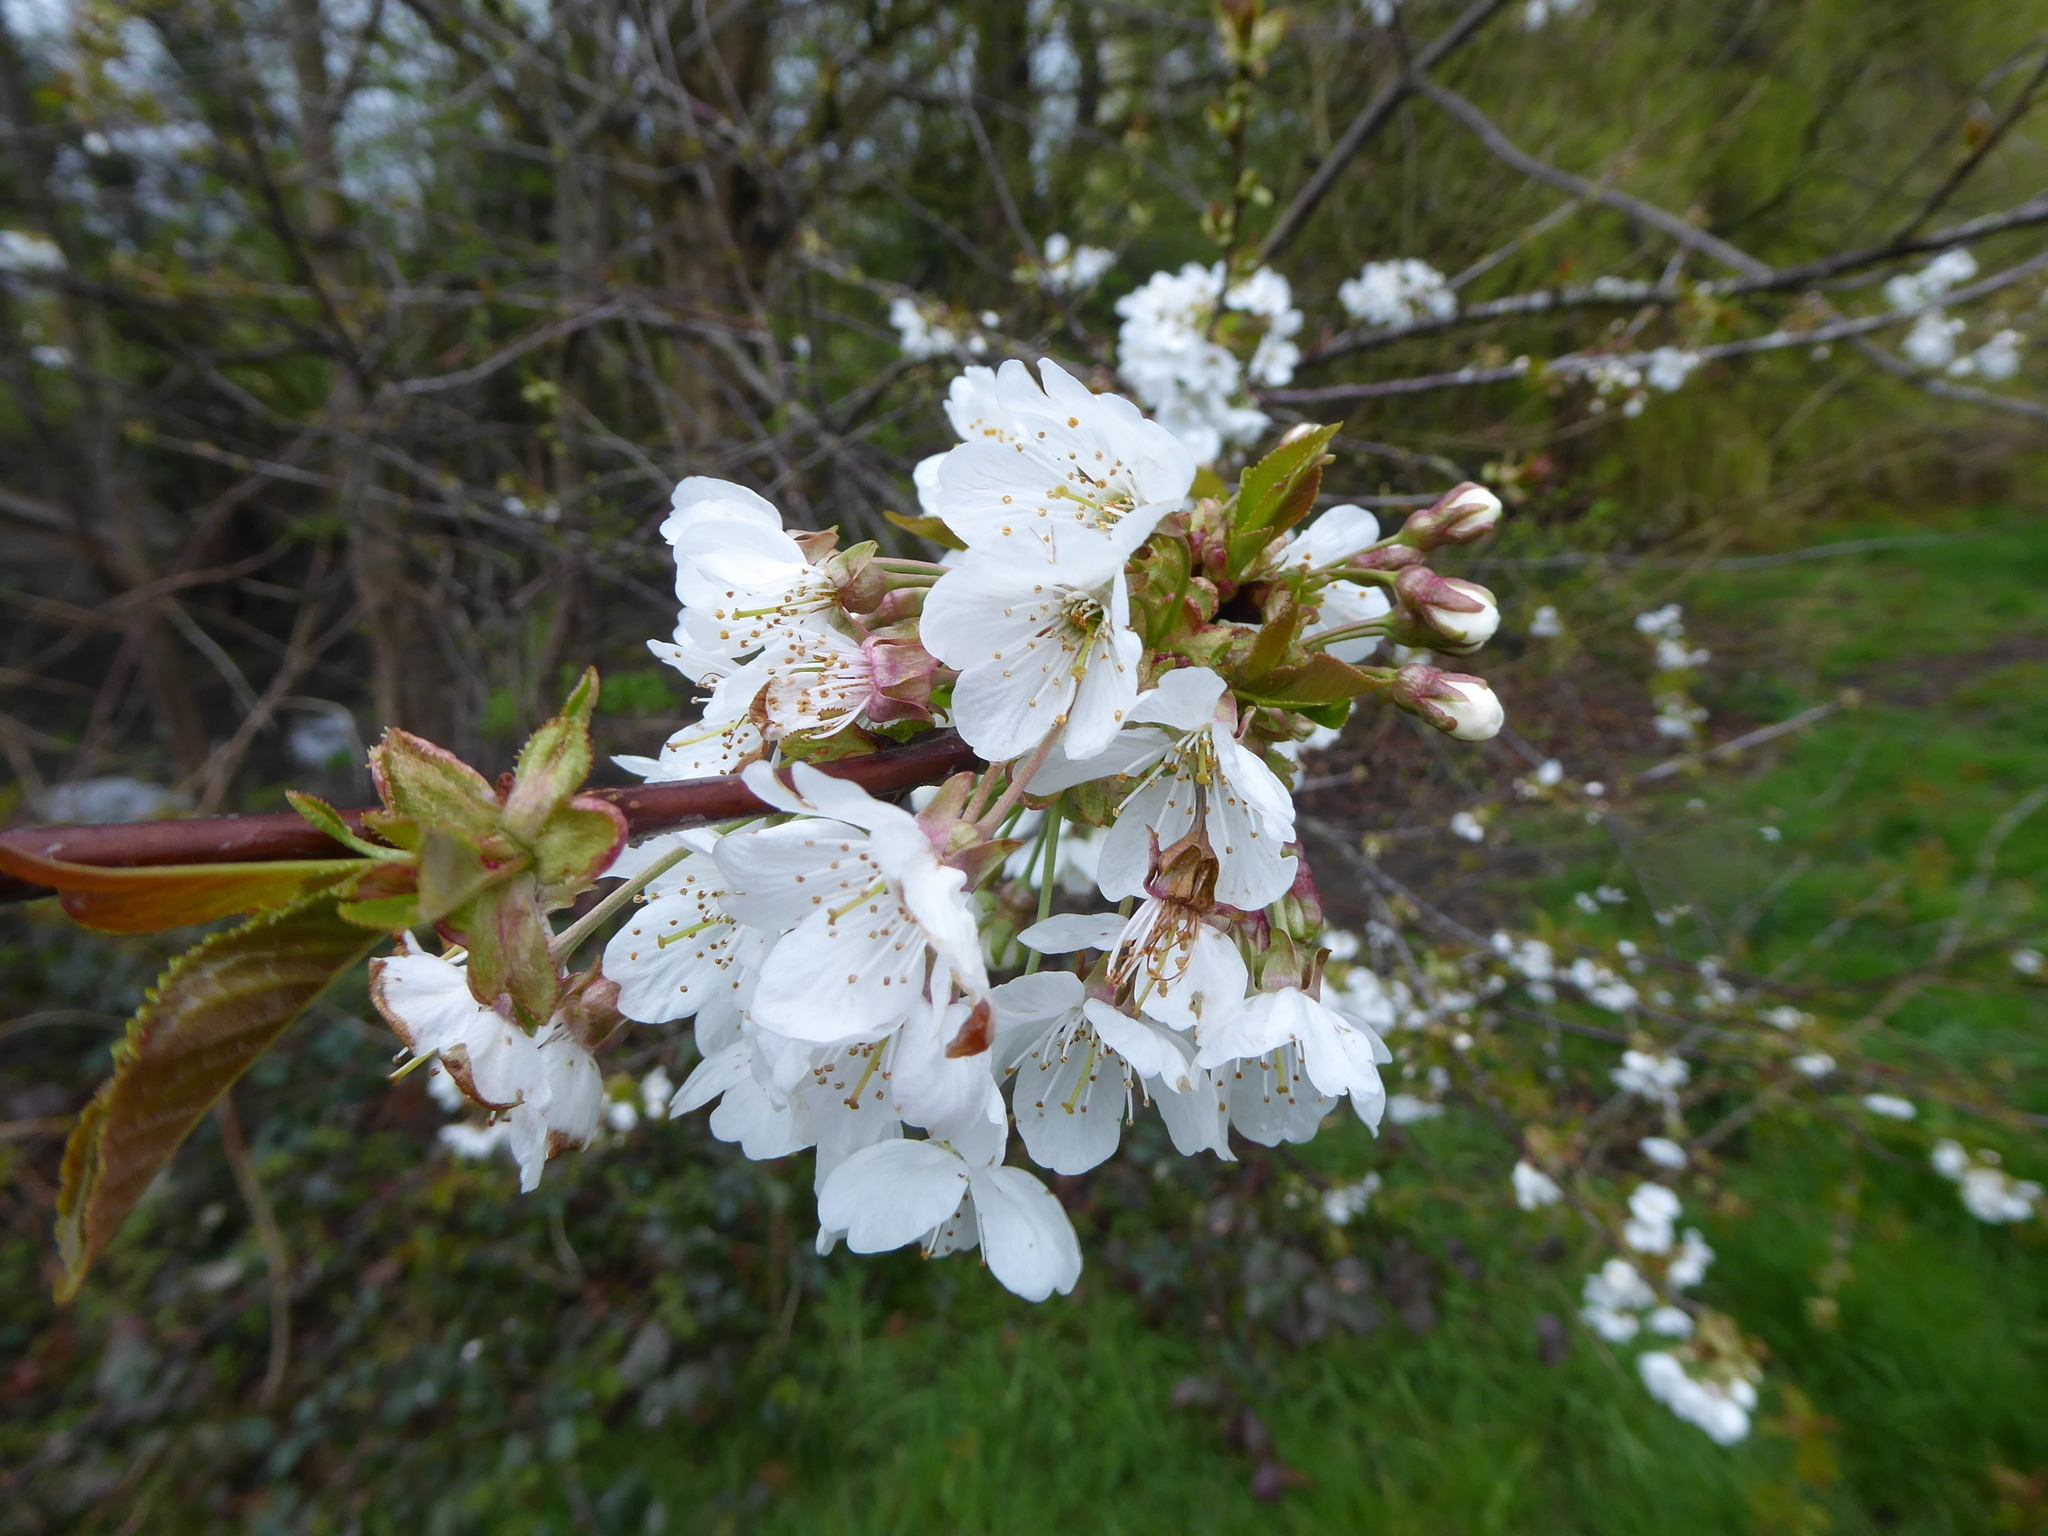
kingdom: Plantae
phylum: Tracheophyta
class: Magnoliopsida
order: Rosales
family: Rosaceae
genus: Prunus
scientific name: Prunus avium
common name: Sweet cherry
